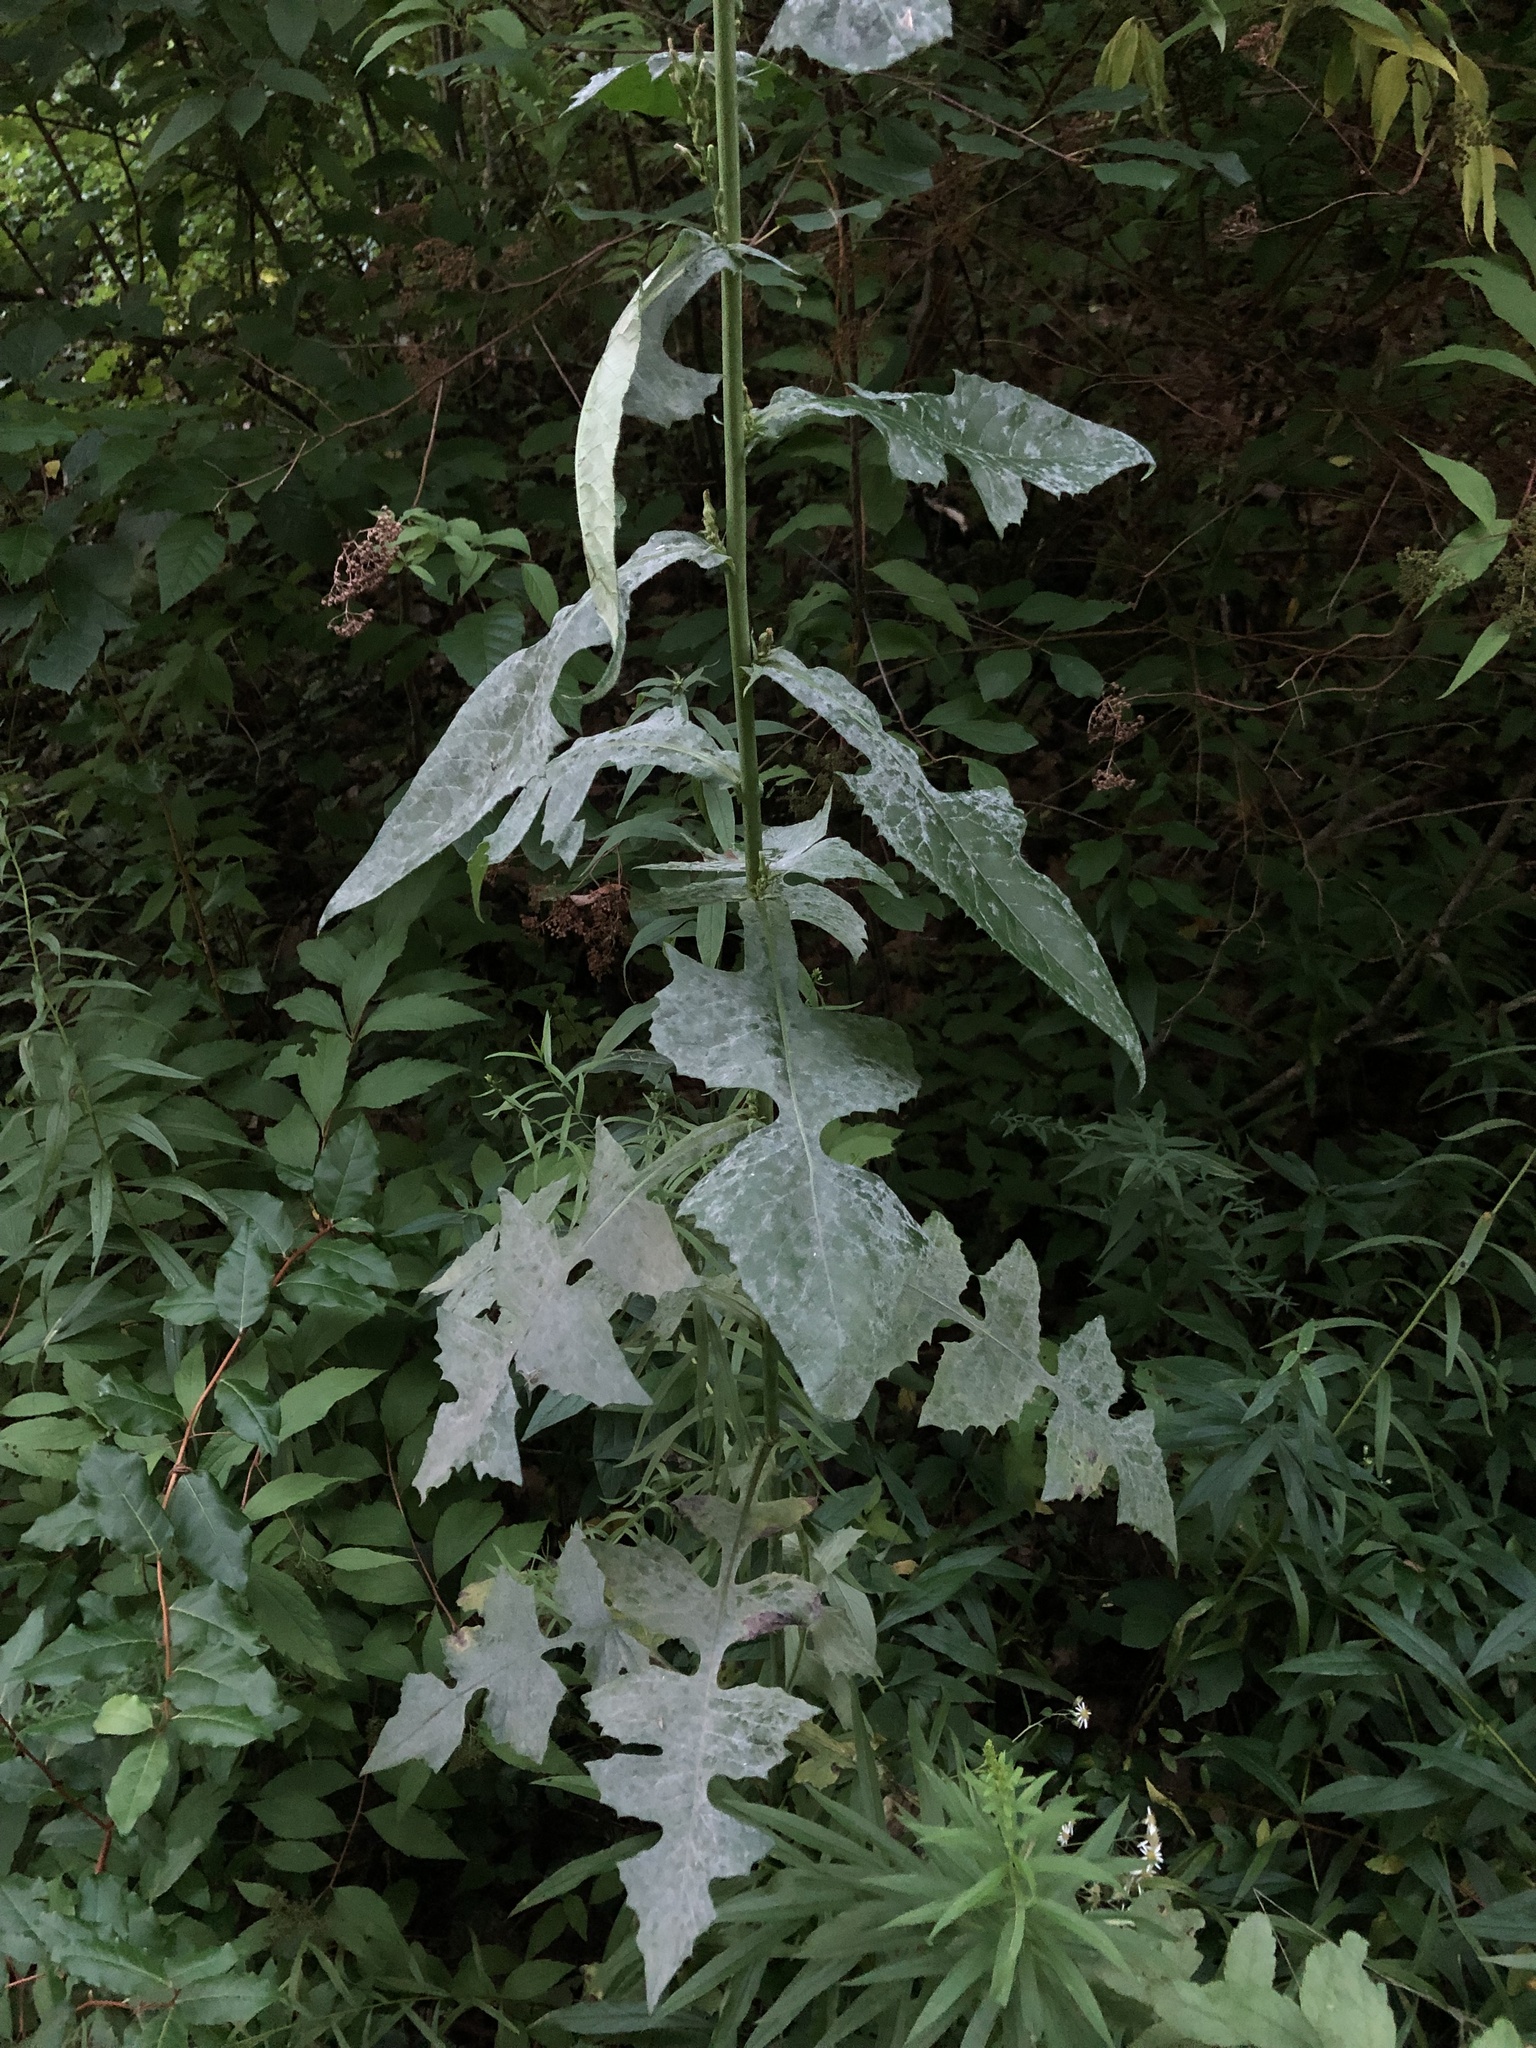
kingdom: Plantae
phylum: Tracheophyta
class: Magnoliopsida
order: Asterales
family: Asteraceae
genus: Lactuca
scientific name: Lactuca biennis
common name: Blue wood lettuce
